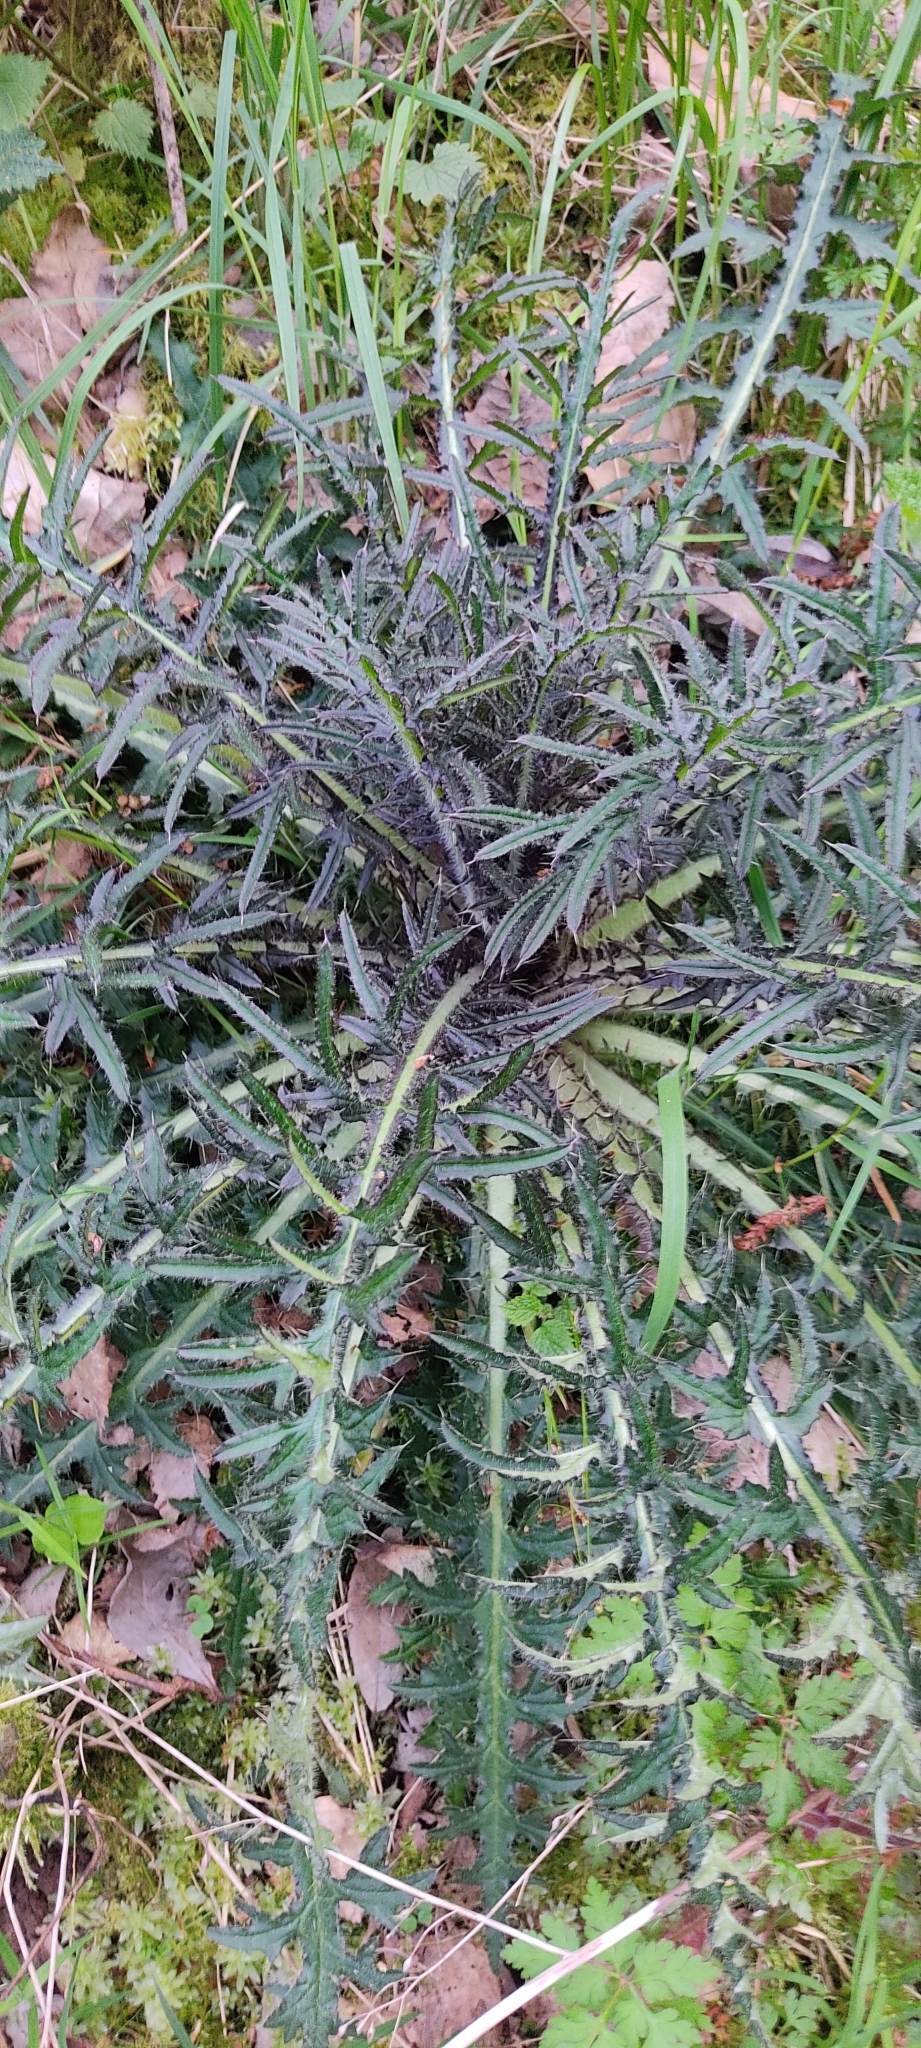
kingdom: Plantae
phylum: Tracheophyta
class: Magnoliopsida
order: Asterales
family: Asteraceae
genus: Cirsium
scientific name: Cirsium palustre
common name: Marsh thistle
